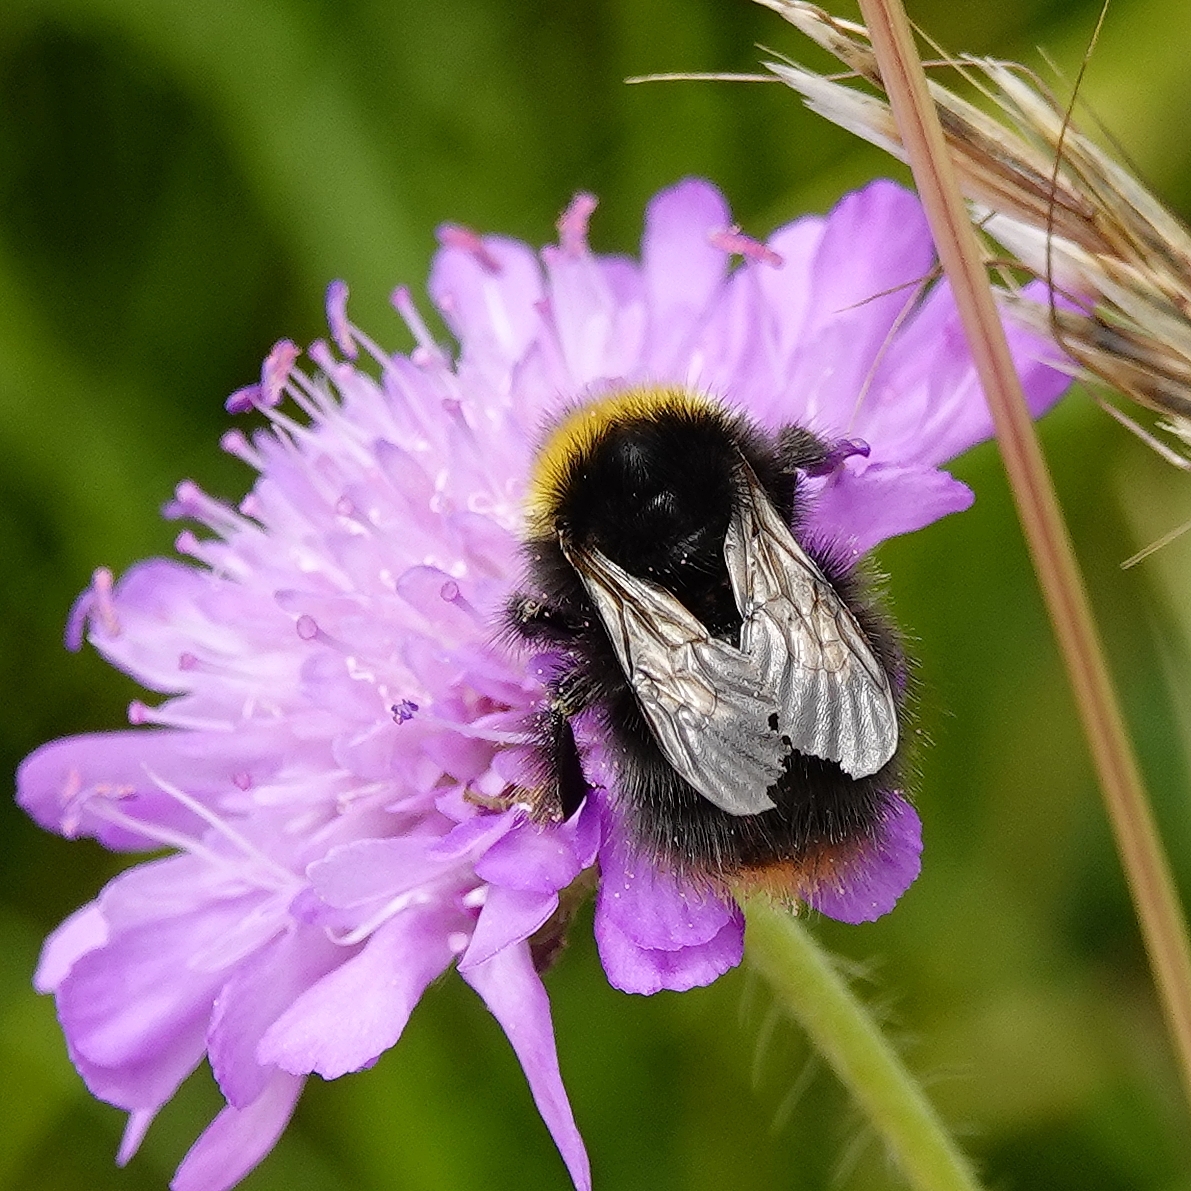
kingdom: Animalia
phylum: Arthropoda
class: Insecta
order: Hymenoptera
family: Apidae
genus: Bombus
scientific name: Bombus pratorum
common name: Early humble-bee
